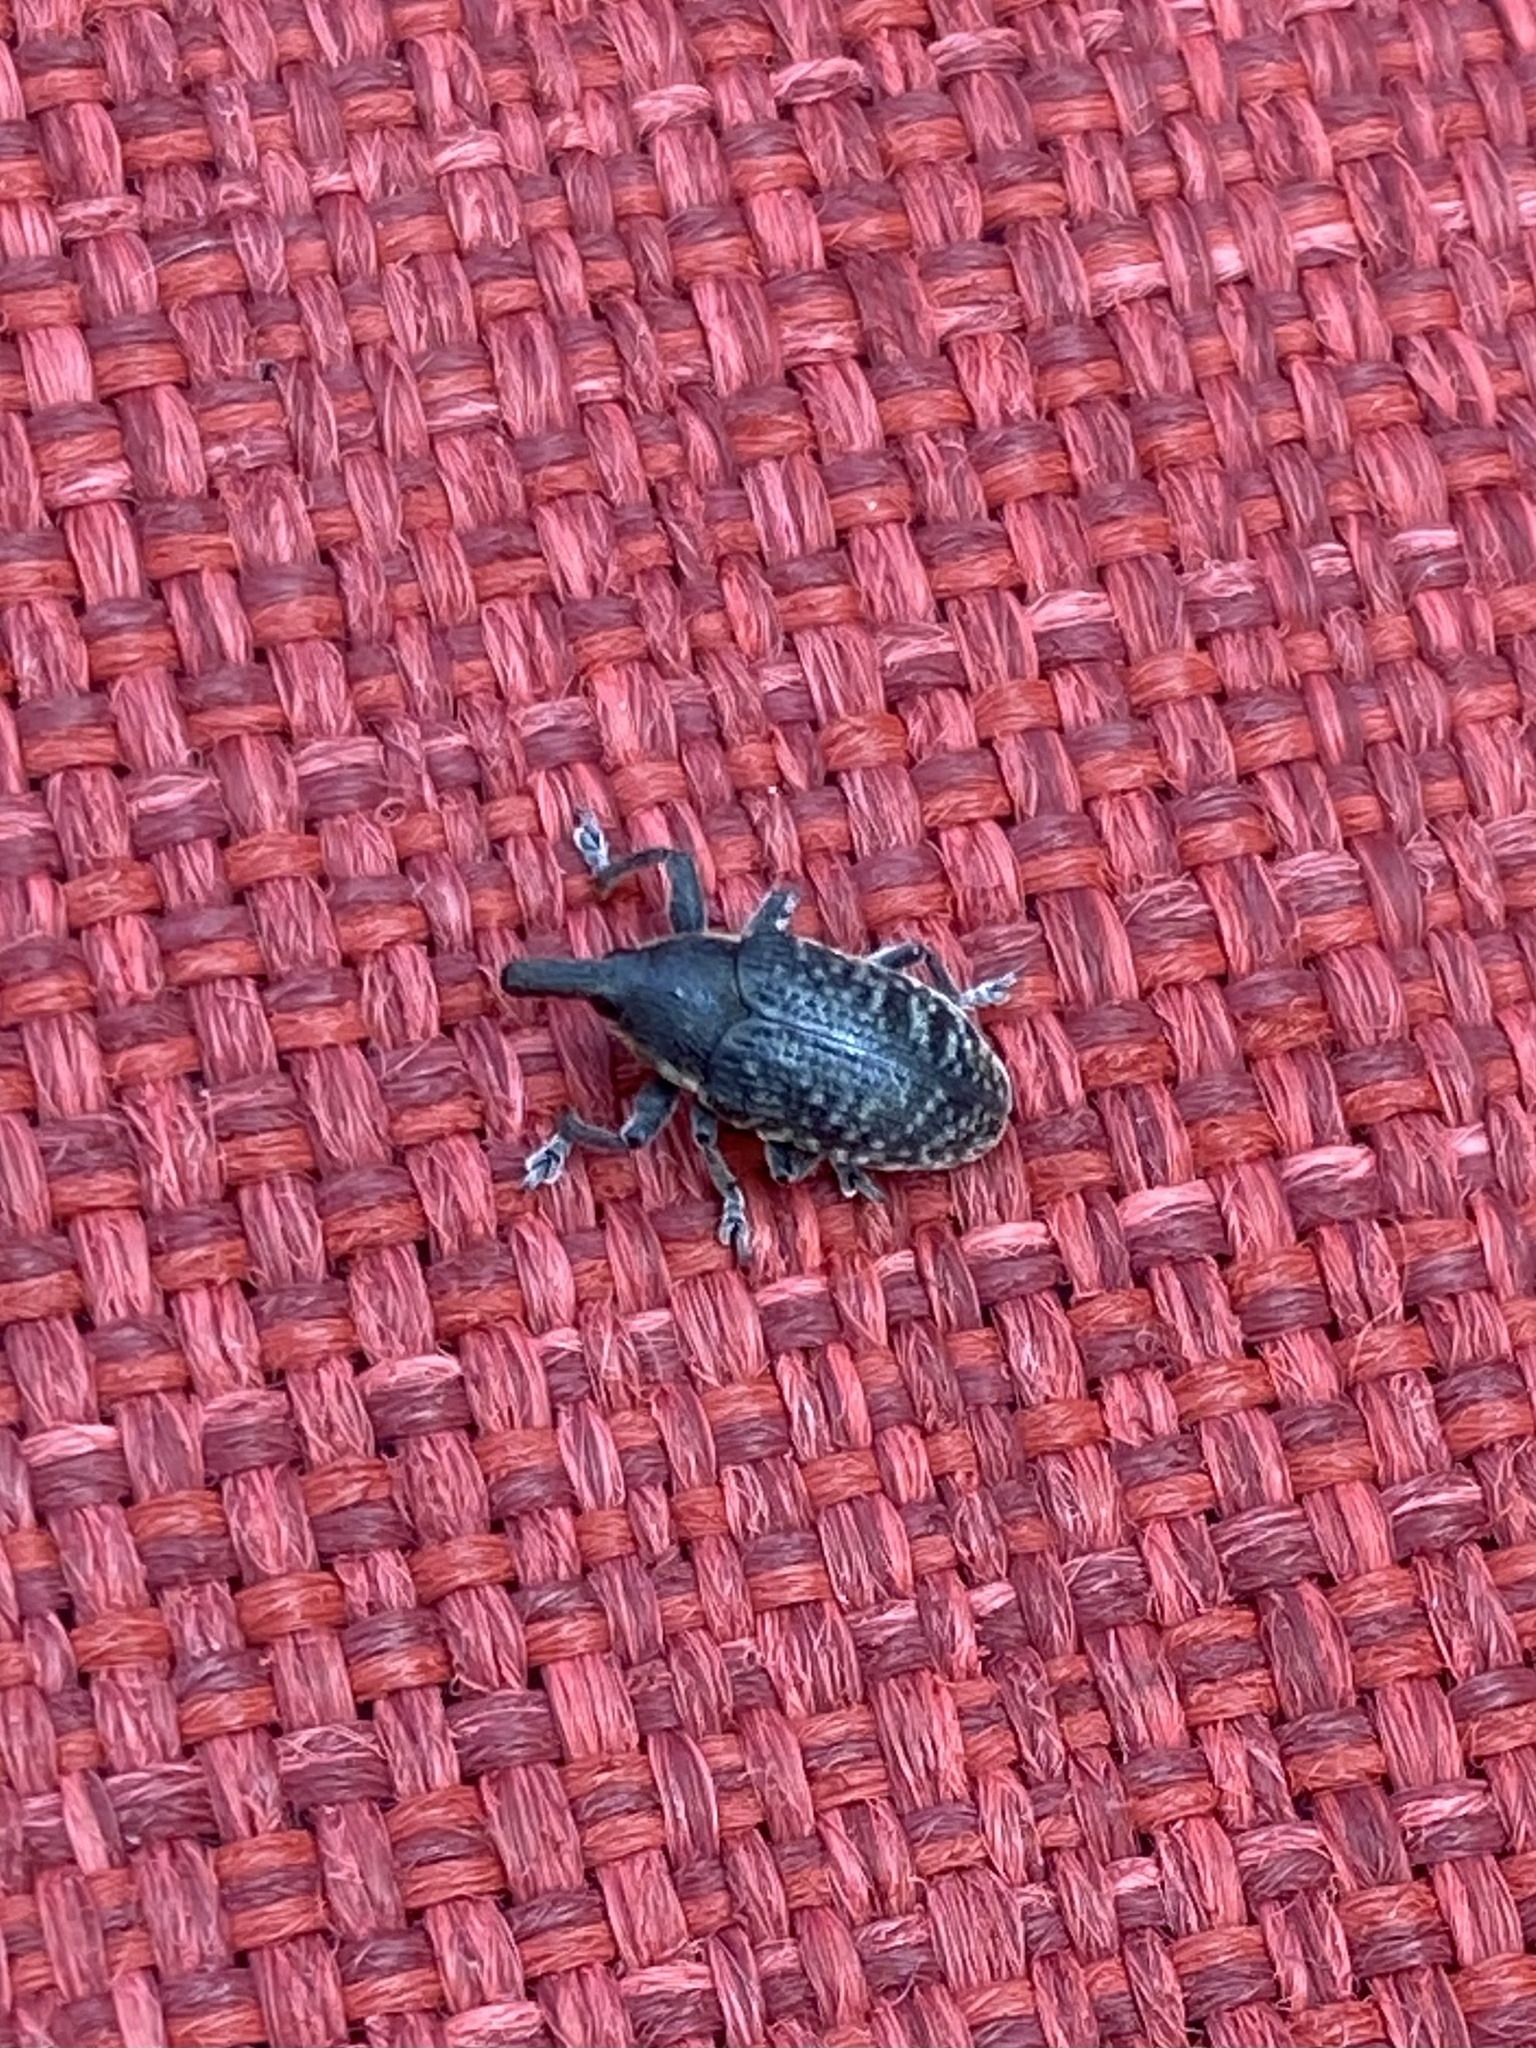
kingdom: Animalia
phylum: Arthropoda
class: Insecta
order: Coleoptera
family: Curculionidae
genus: Larinus
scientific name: Larinus carlinae
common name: Weevil
